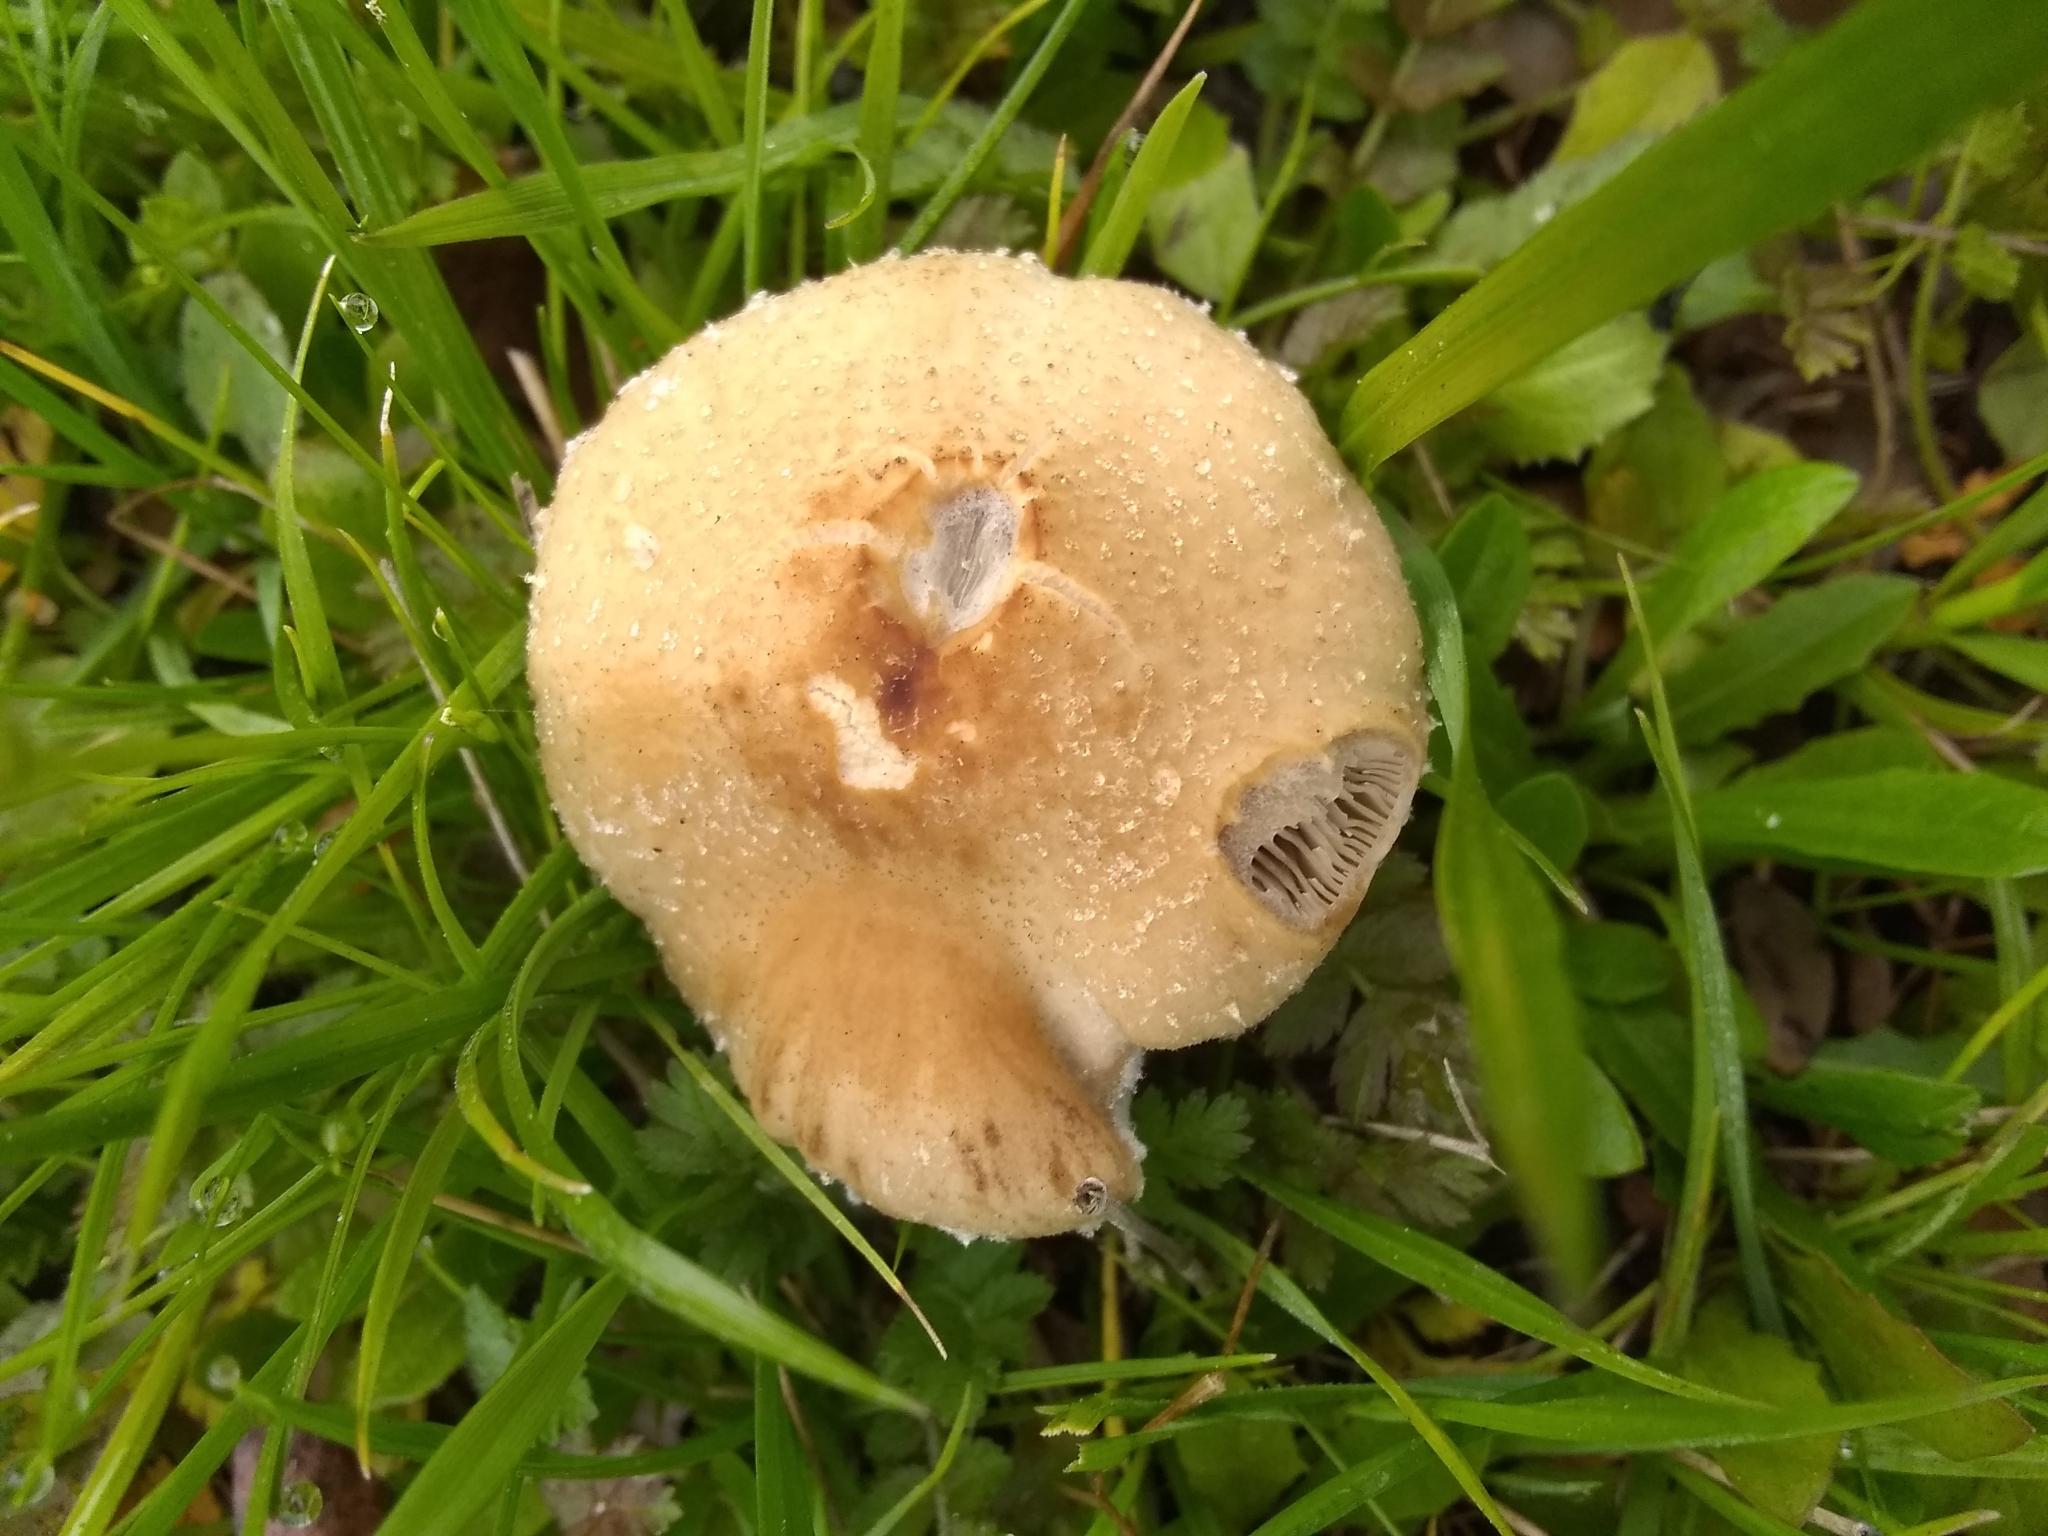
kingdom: Fungi
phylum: Basidiomycota
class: Agaricomycetes
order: Agaricales
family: Strophariaceae
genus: Leratiomyces
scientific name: Leratiomyces percevalii
